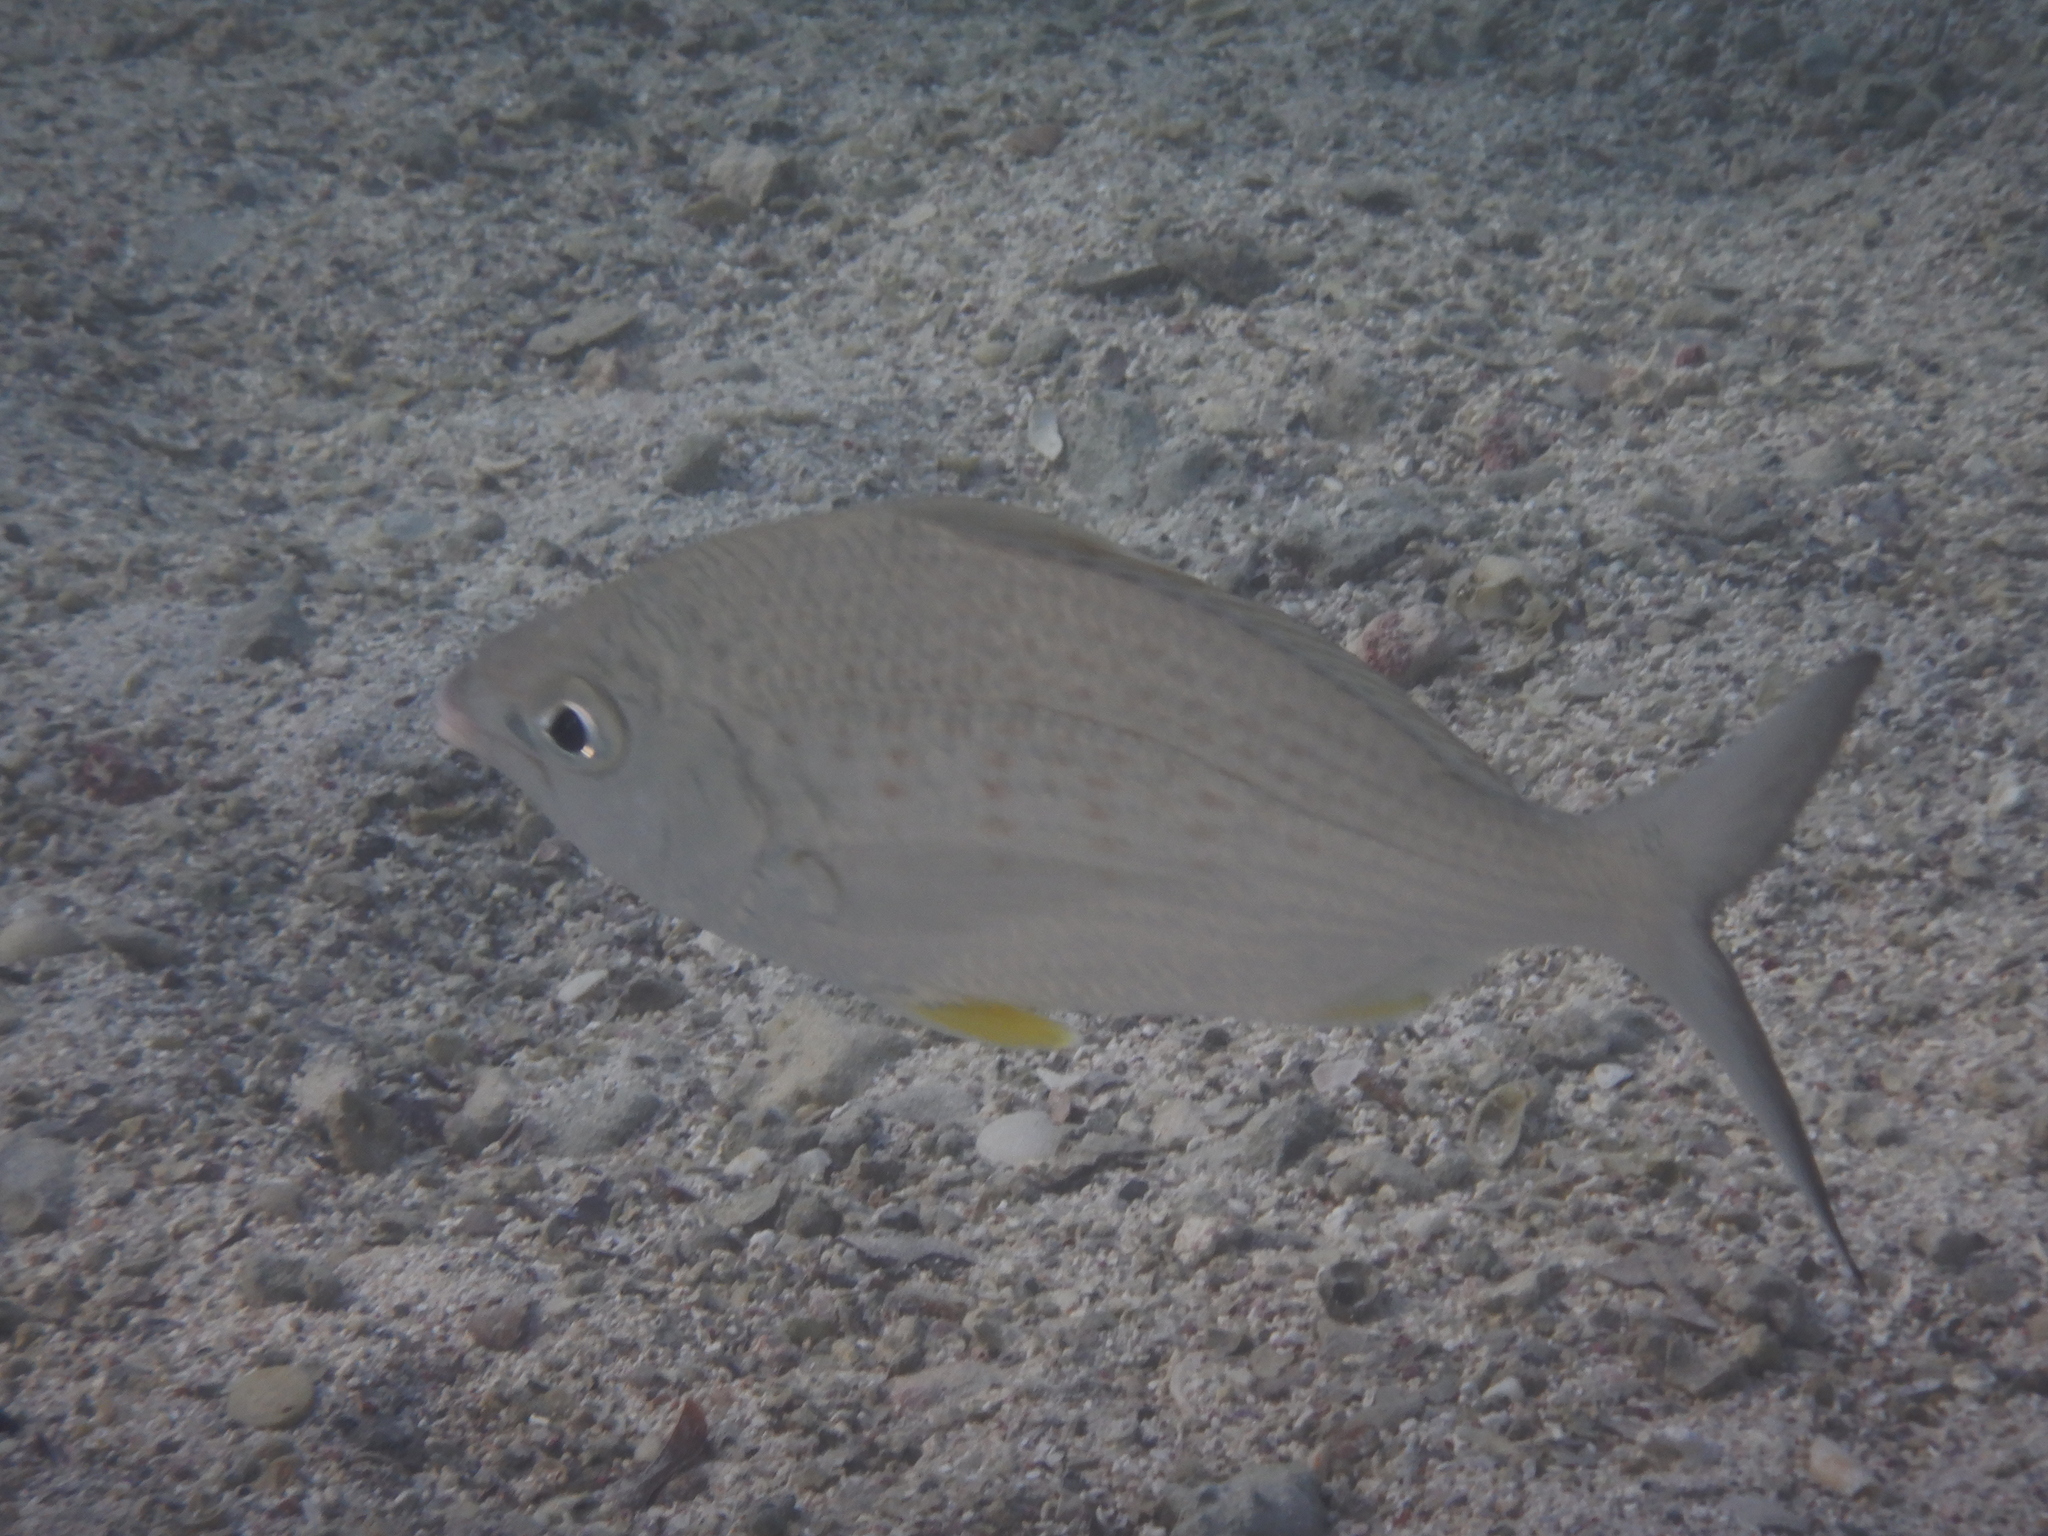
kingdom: Animalia
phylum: Chordata
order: Perciformes
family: Gerreidae
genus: Gerres
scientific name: Gerres longirostris
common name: Strongspine silver-biddy
